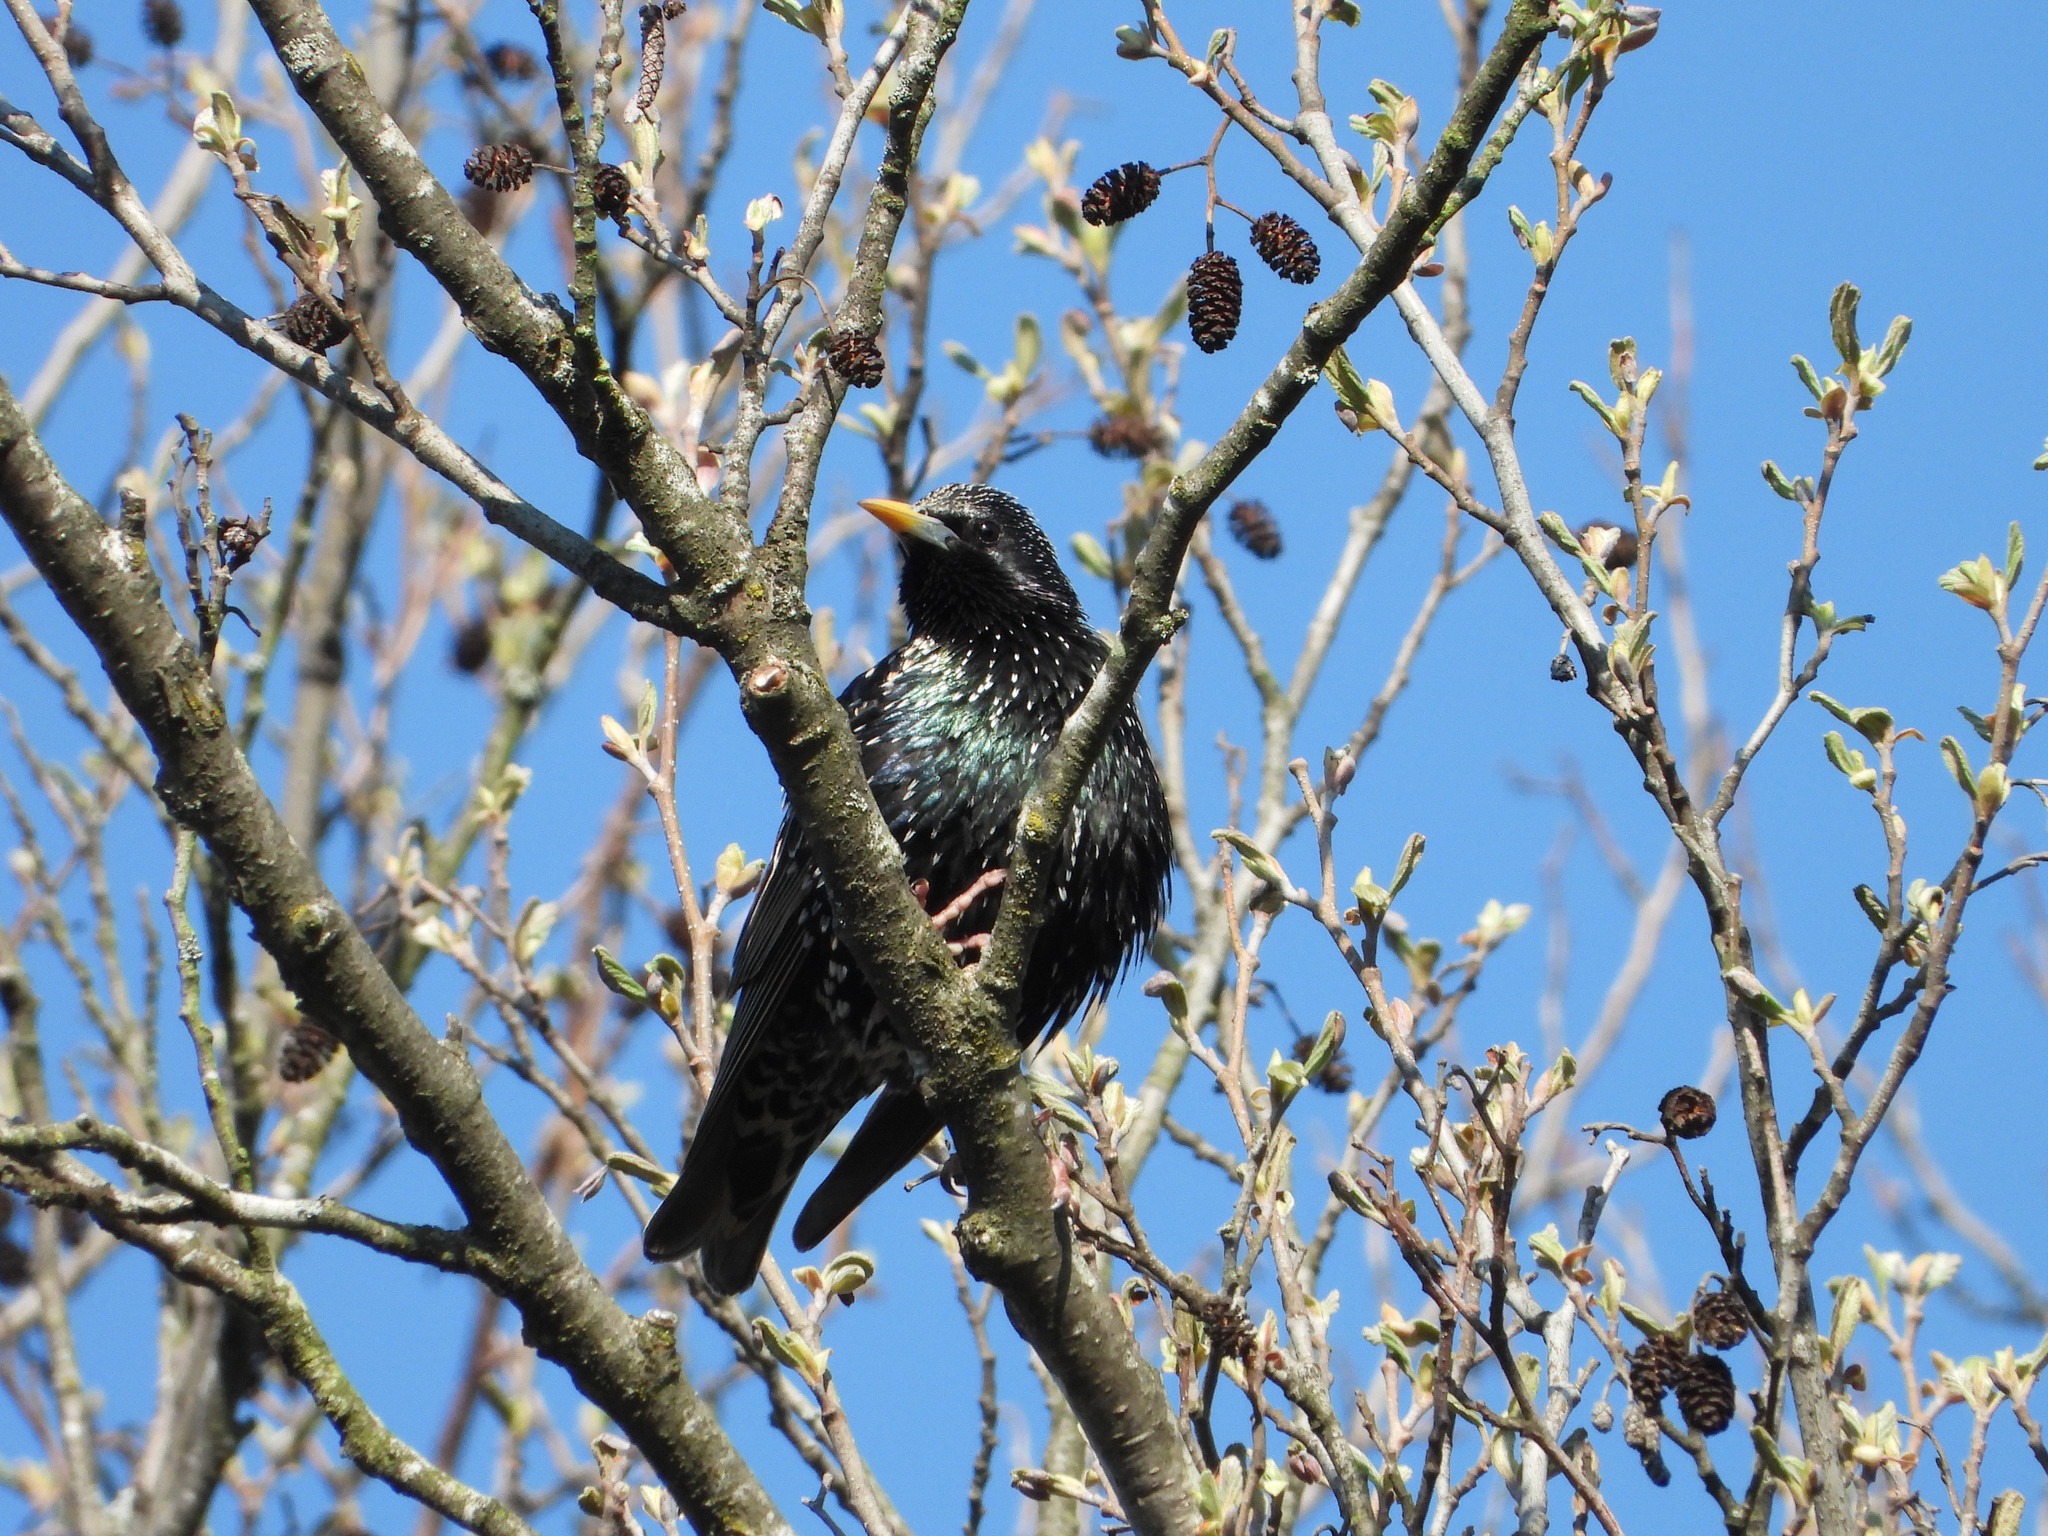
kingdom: Animalia
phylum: Chordata
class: Aves
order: Passeriformes
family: Sturnidae
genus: Sturnus
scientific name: Sturnus vulgaris
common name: Common starling
